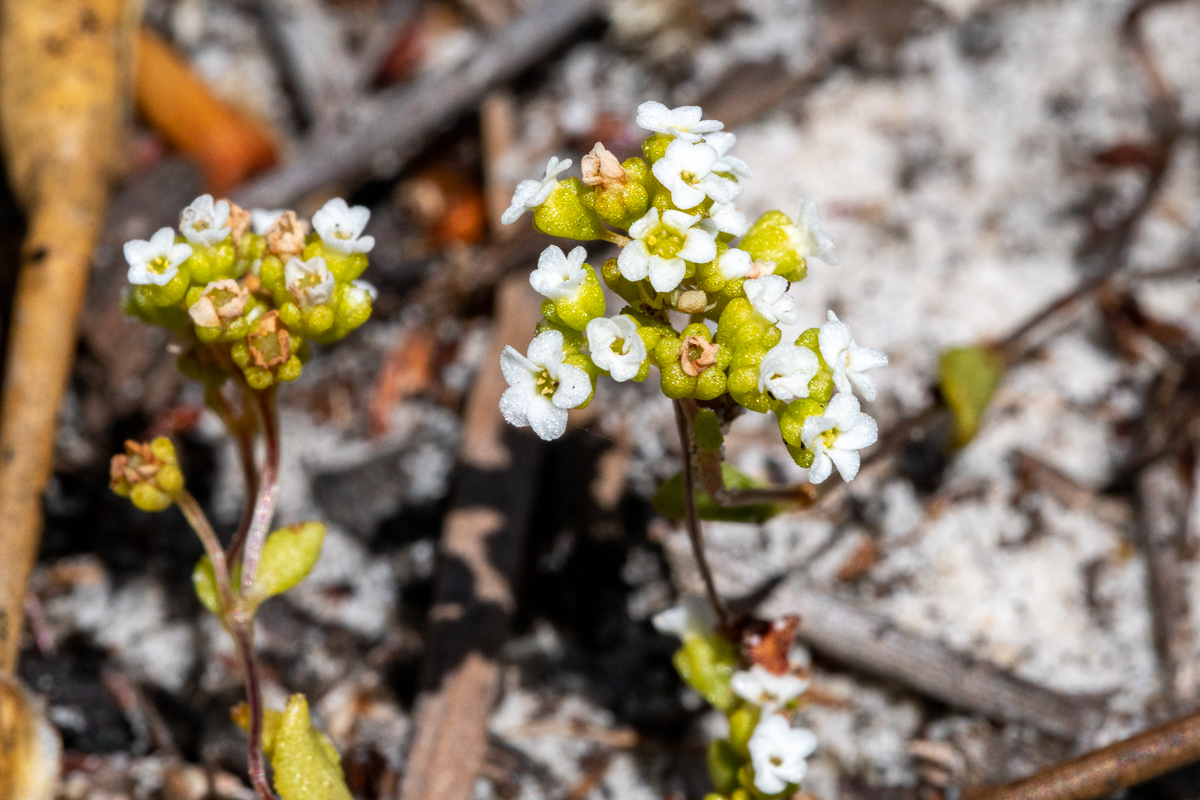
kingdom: Plantae
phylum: Tracheophyta
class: Magnoliopsida
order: Saxifragales
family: Crassulaceae
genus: Crassula
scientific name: Crassula filiformis
